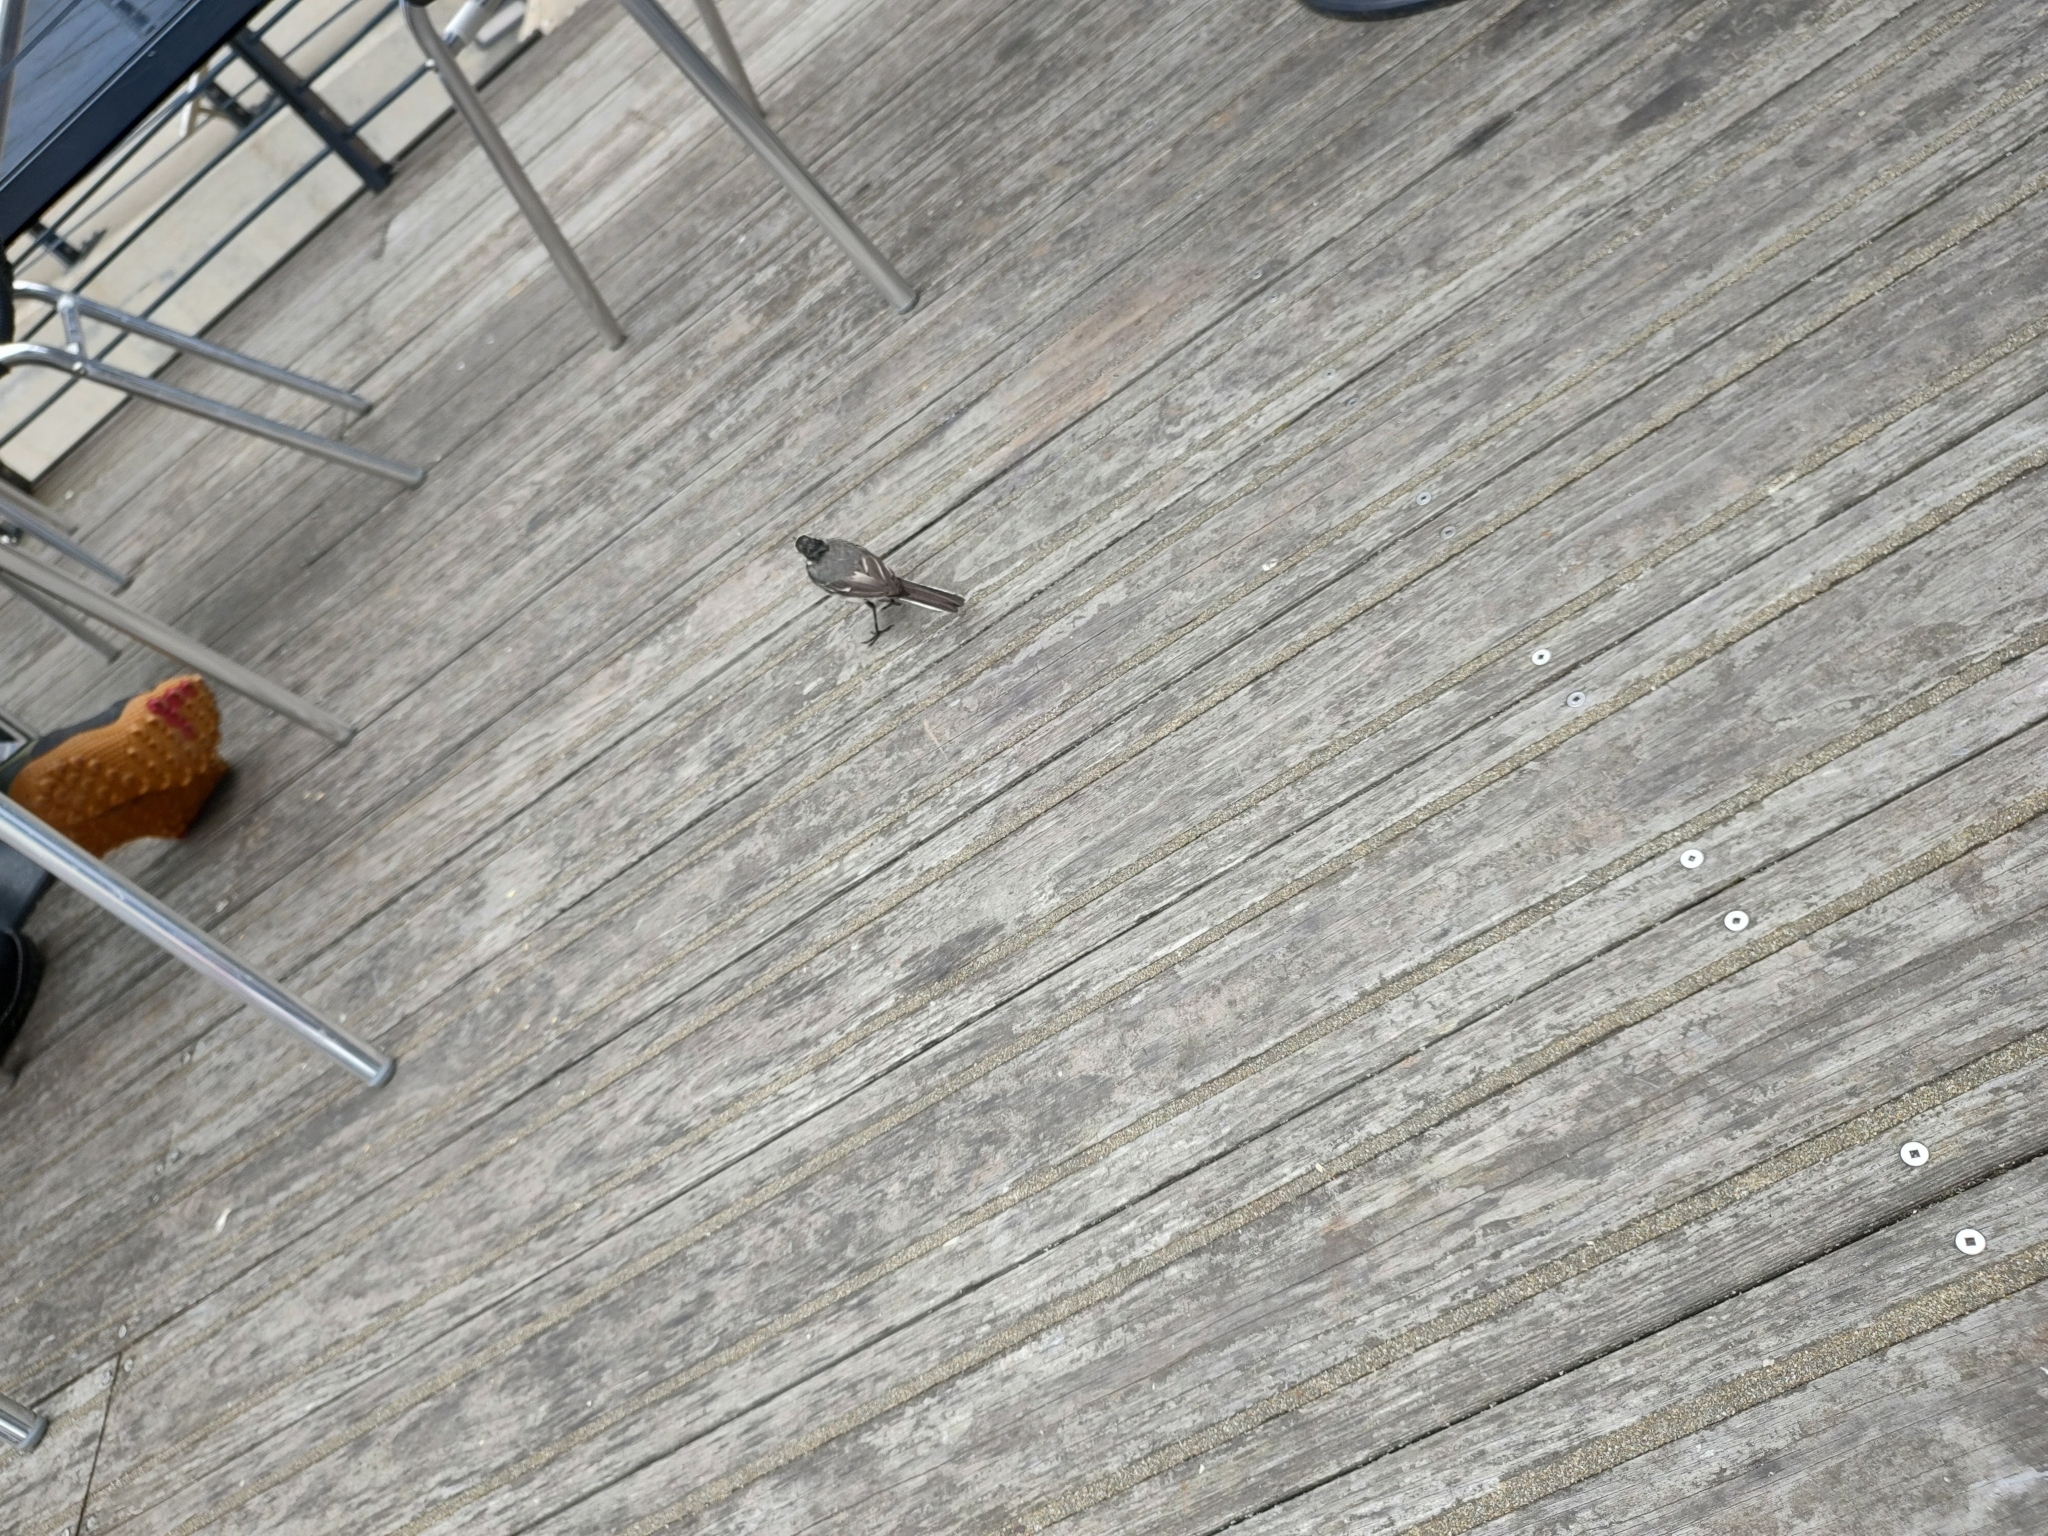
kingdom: Animalia
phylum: Chordata
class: Aves
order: Passeriformes
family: Motacillidae
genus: Motacilla
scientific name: Motacilla alba
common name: White wagtail
